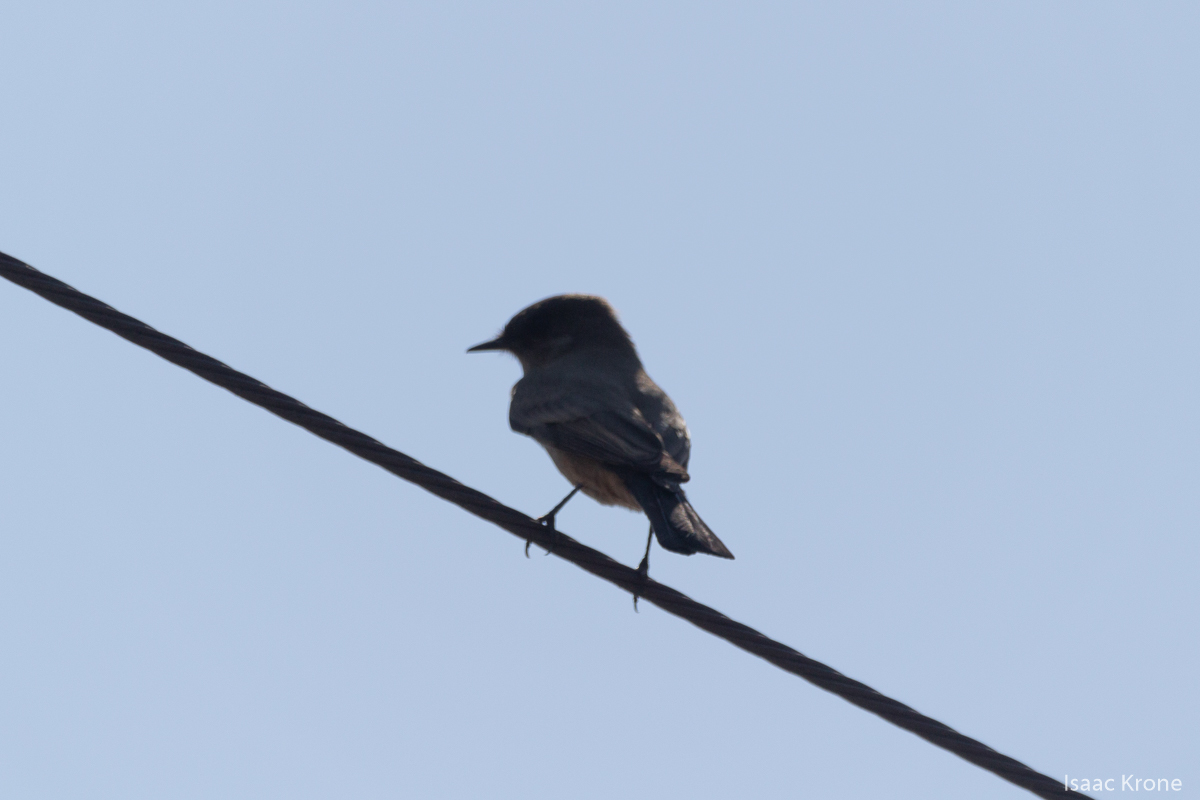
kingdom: Animalia
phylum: Chordata
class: Aves
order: Passeriformes
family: Tyrannidae
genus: Sayornis
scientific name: Sayornis saya
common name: Say's phoebe
